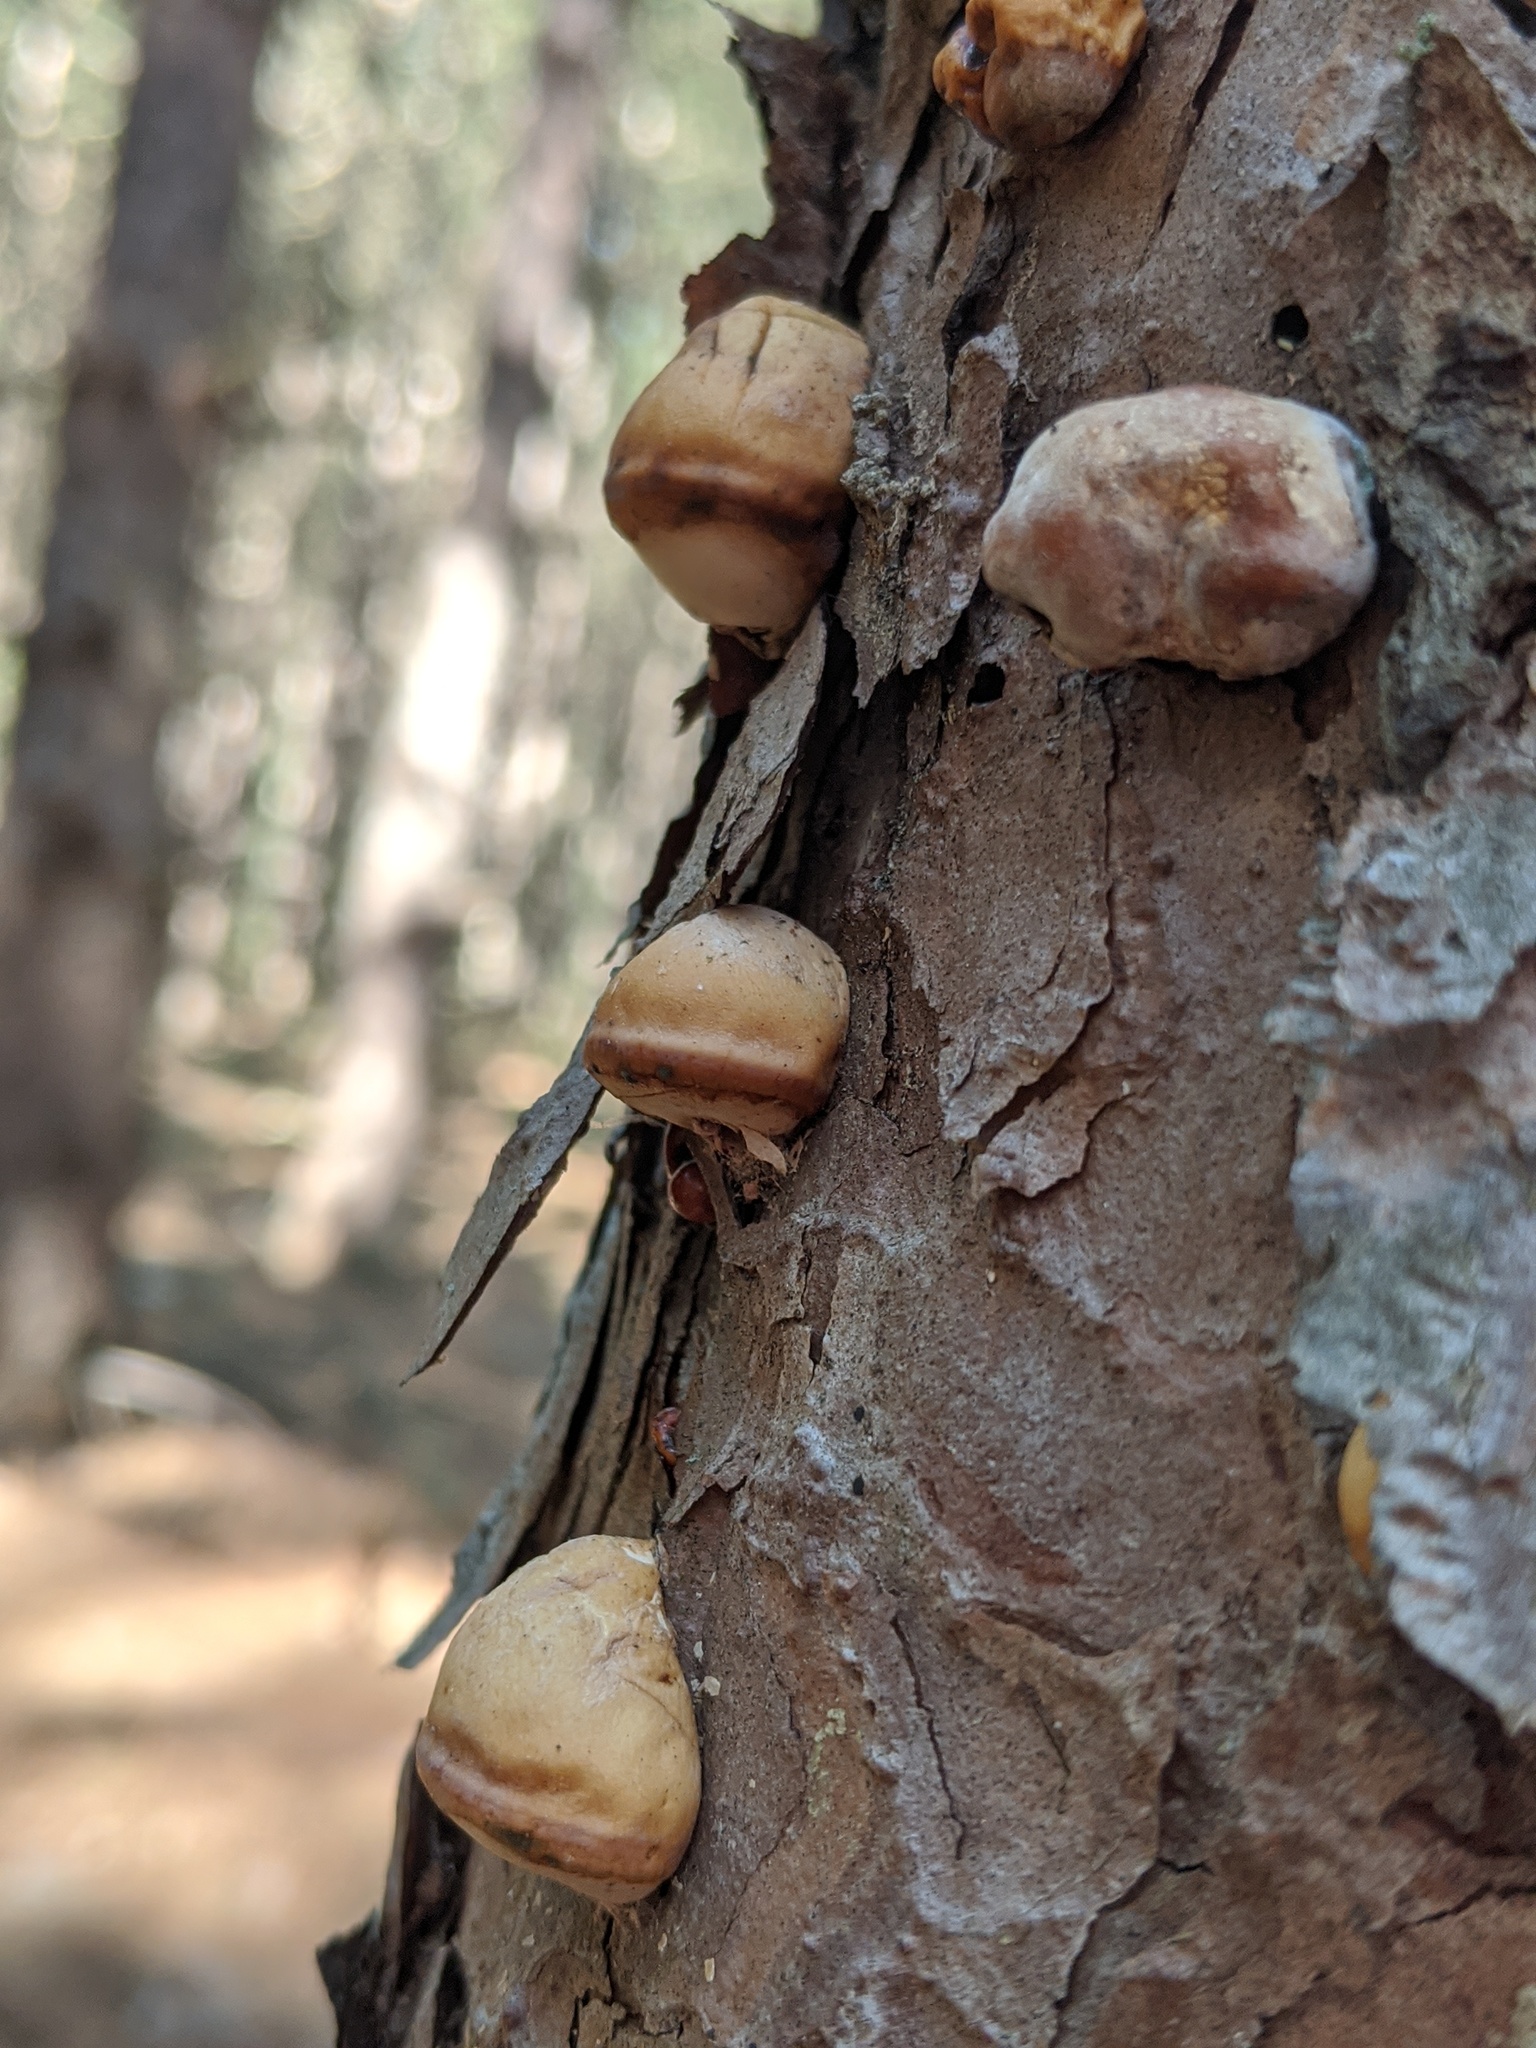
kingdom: Fungi
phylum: Basidiomycota
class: Agaricomycetes
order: Polyporales
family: Polyporaceae
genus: Cryptoporus
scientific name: Cryptoporus volvatus
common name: Veiled polypore
